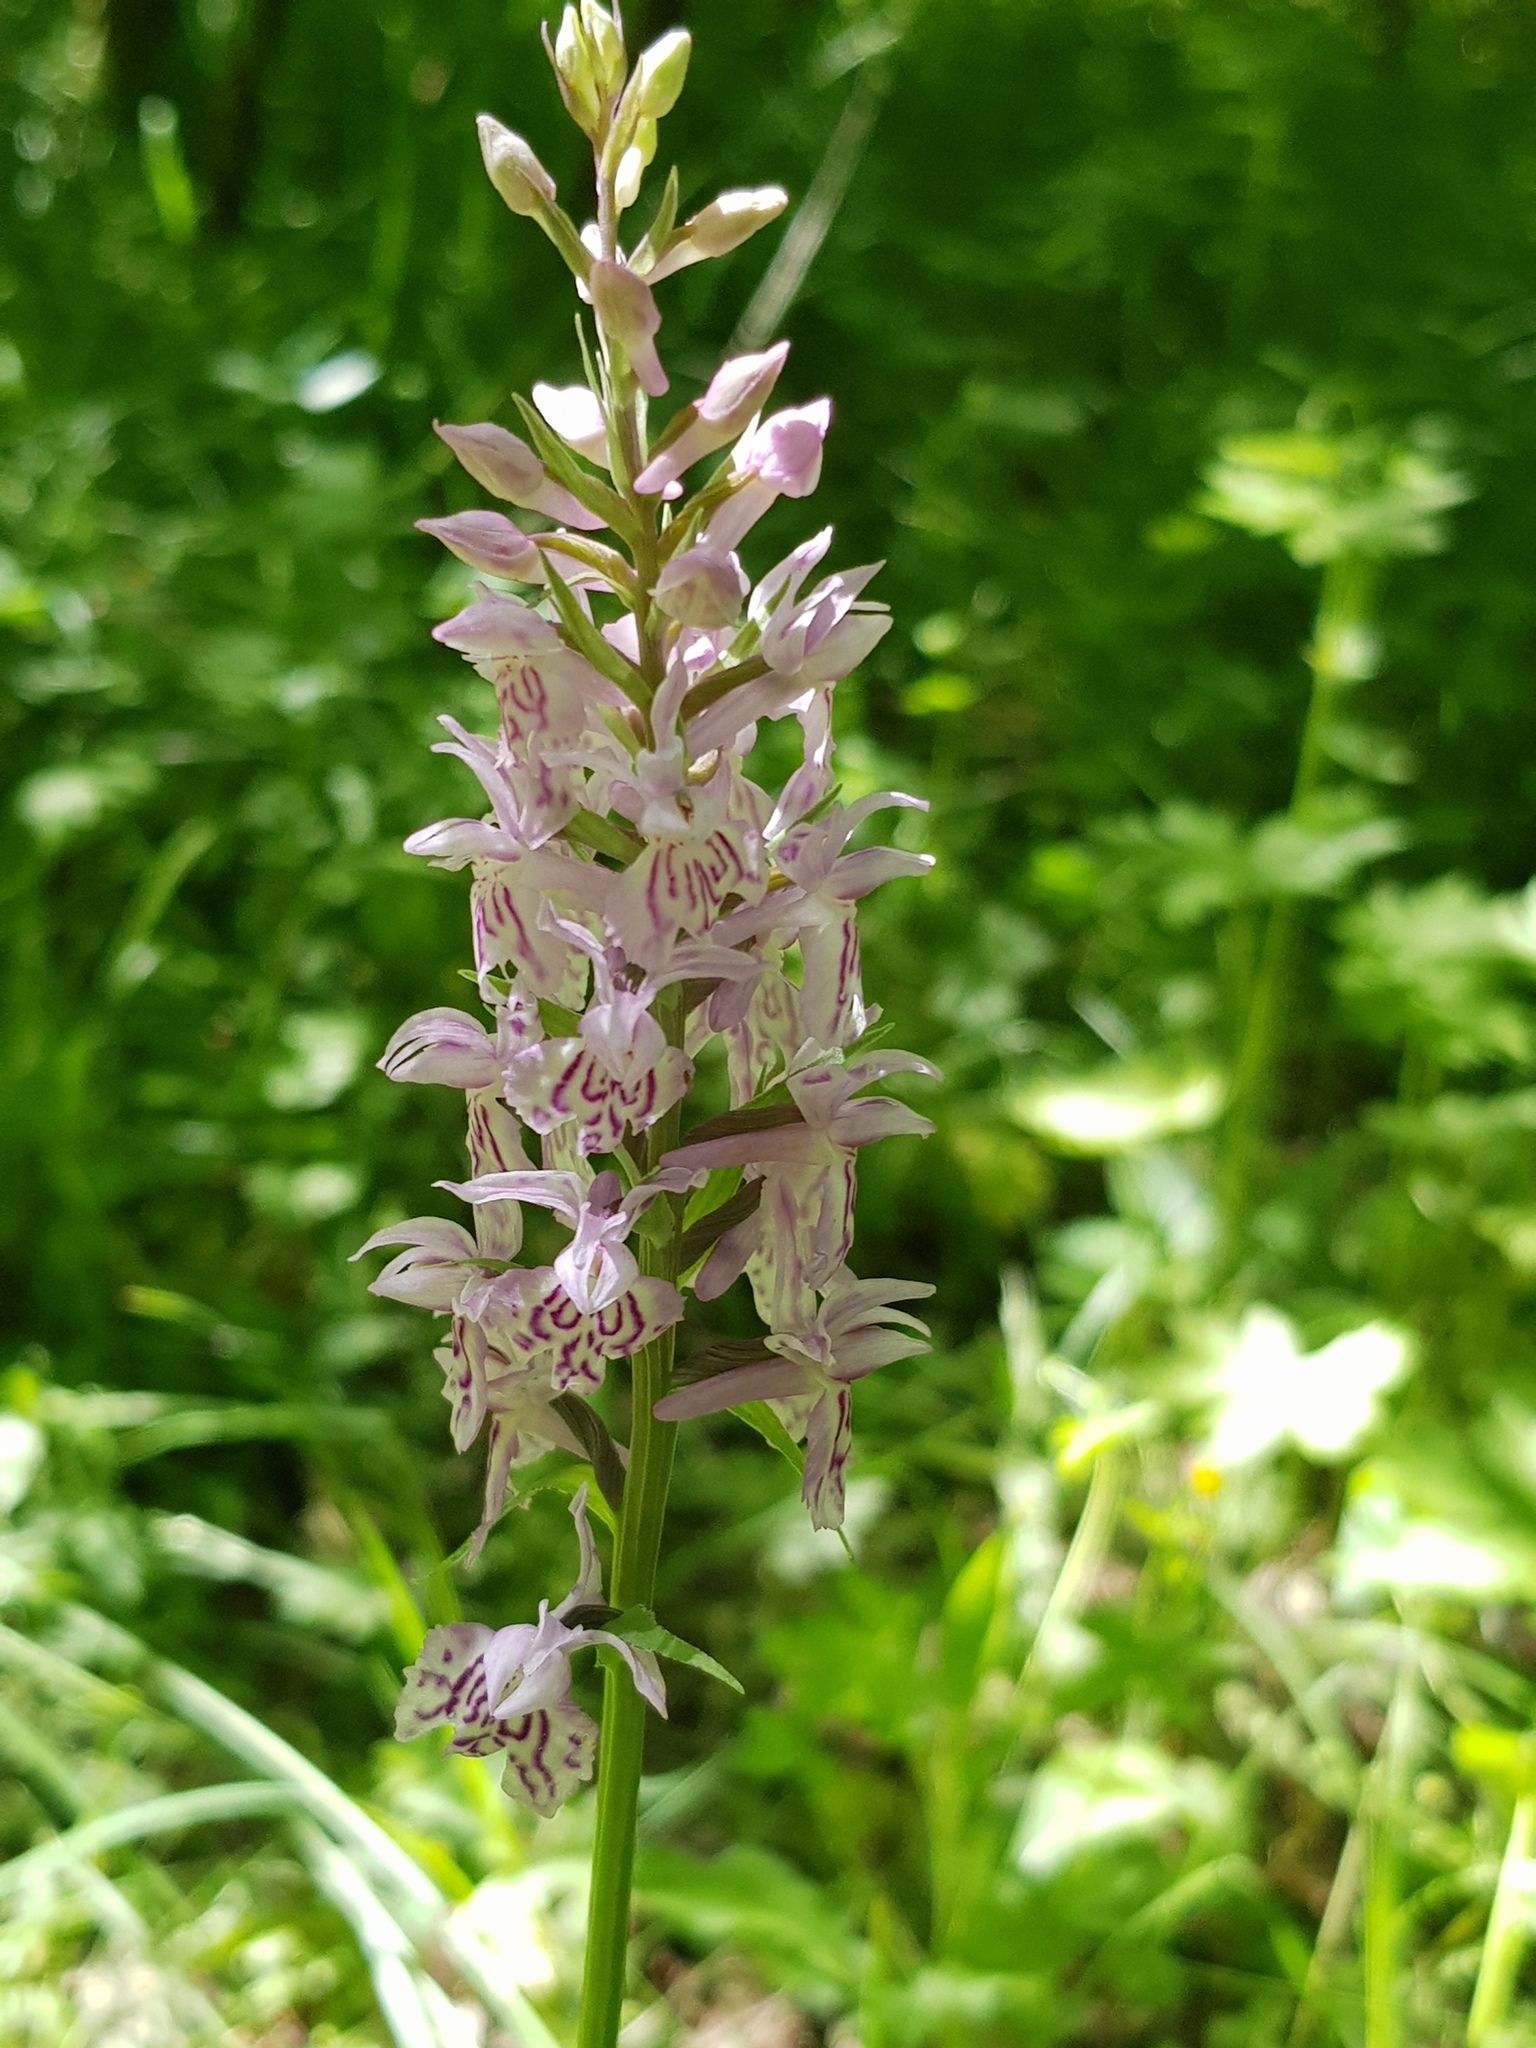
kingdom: Plantae
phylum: Tracheophyta
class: Liliopsida
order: Asparagales
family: Orchidaceae
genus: Dactylorhiza
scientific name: Dactylorhiza maculata
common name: Heath spotted-orchid
